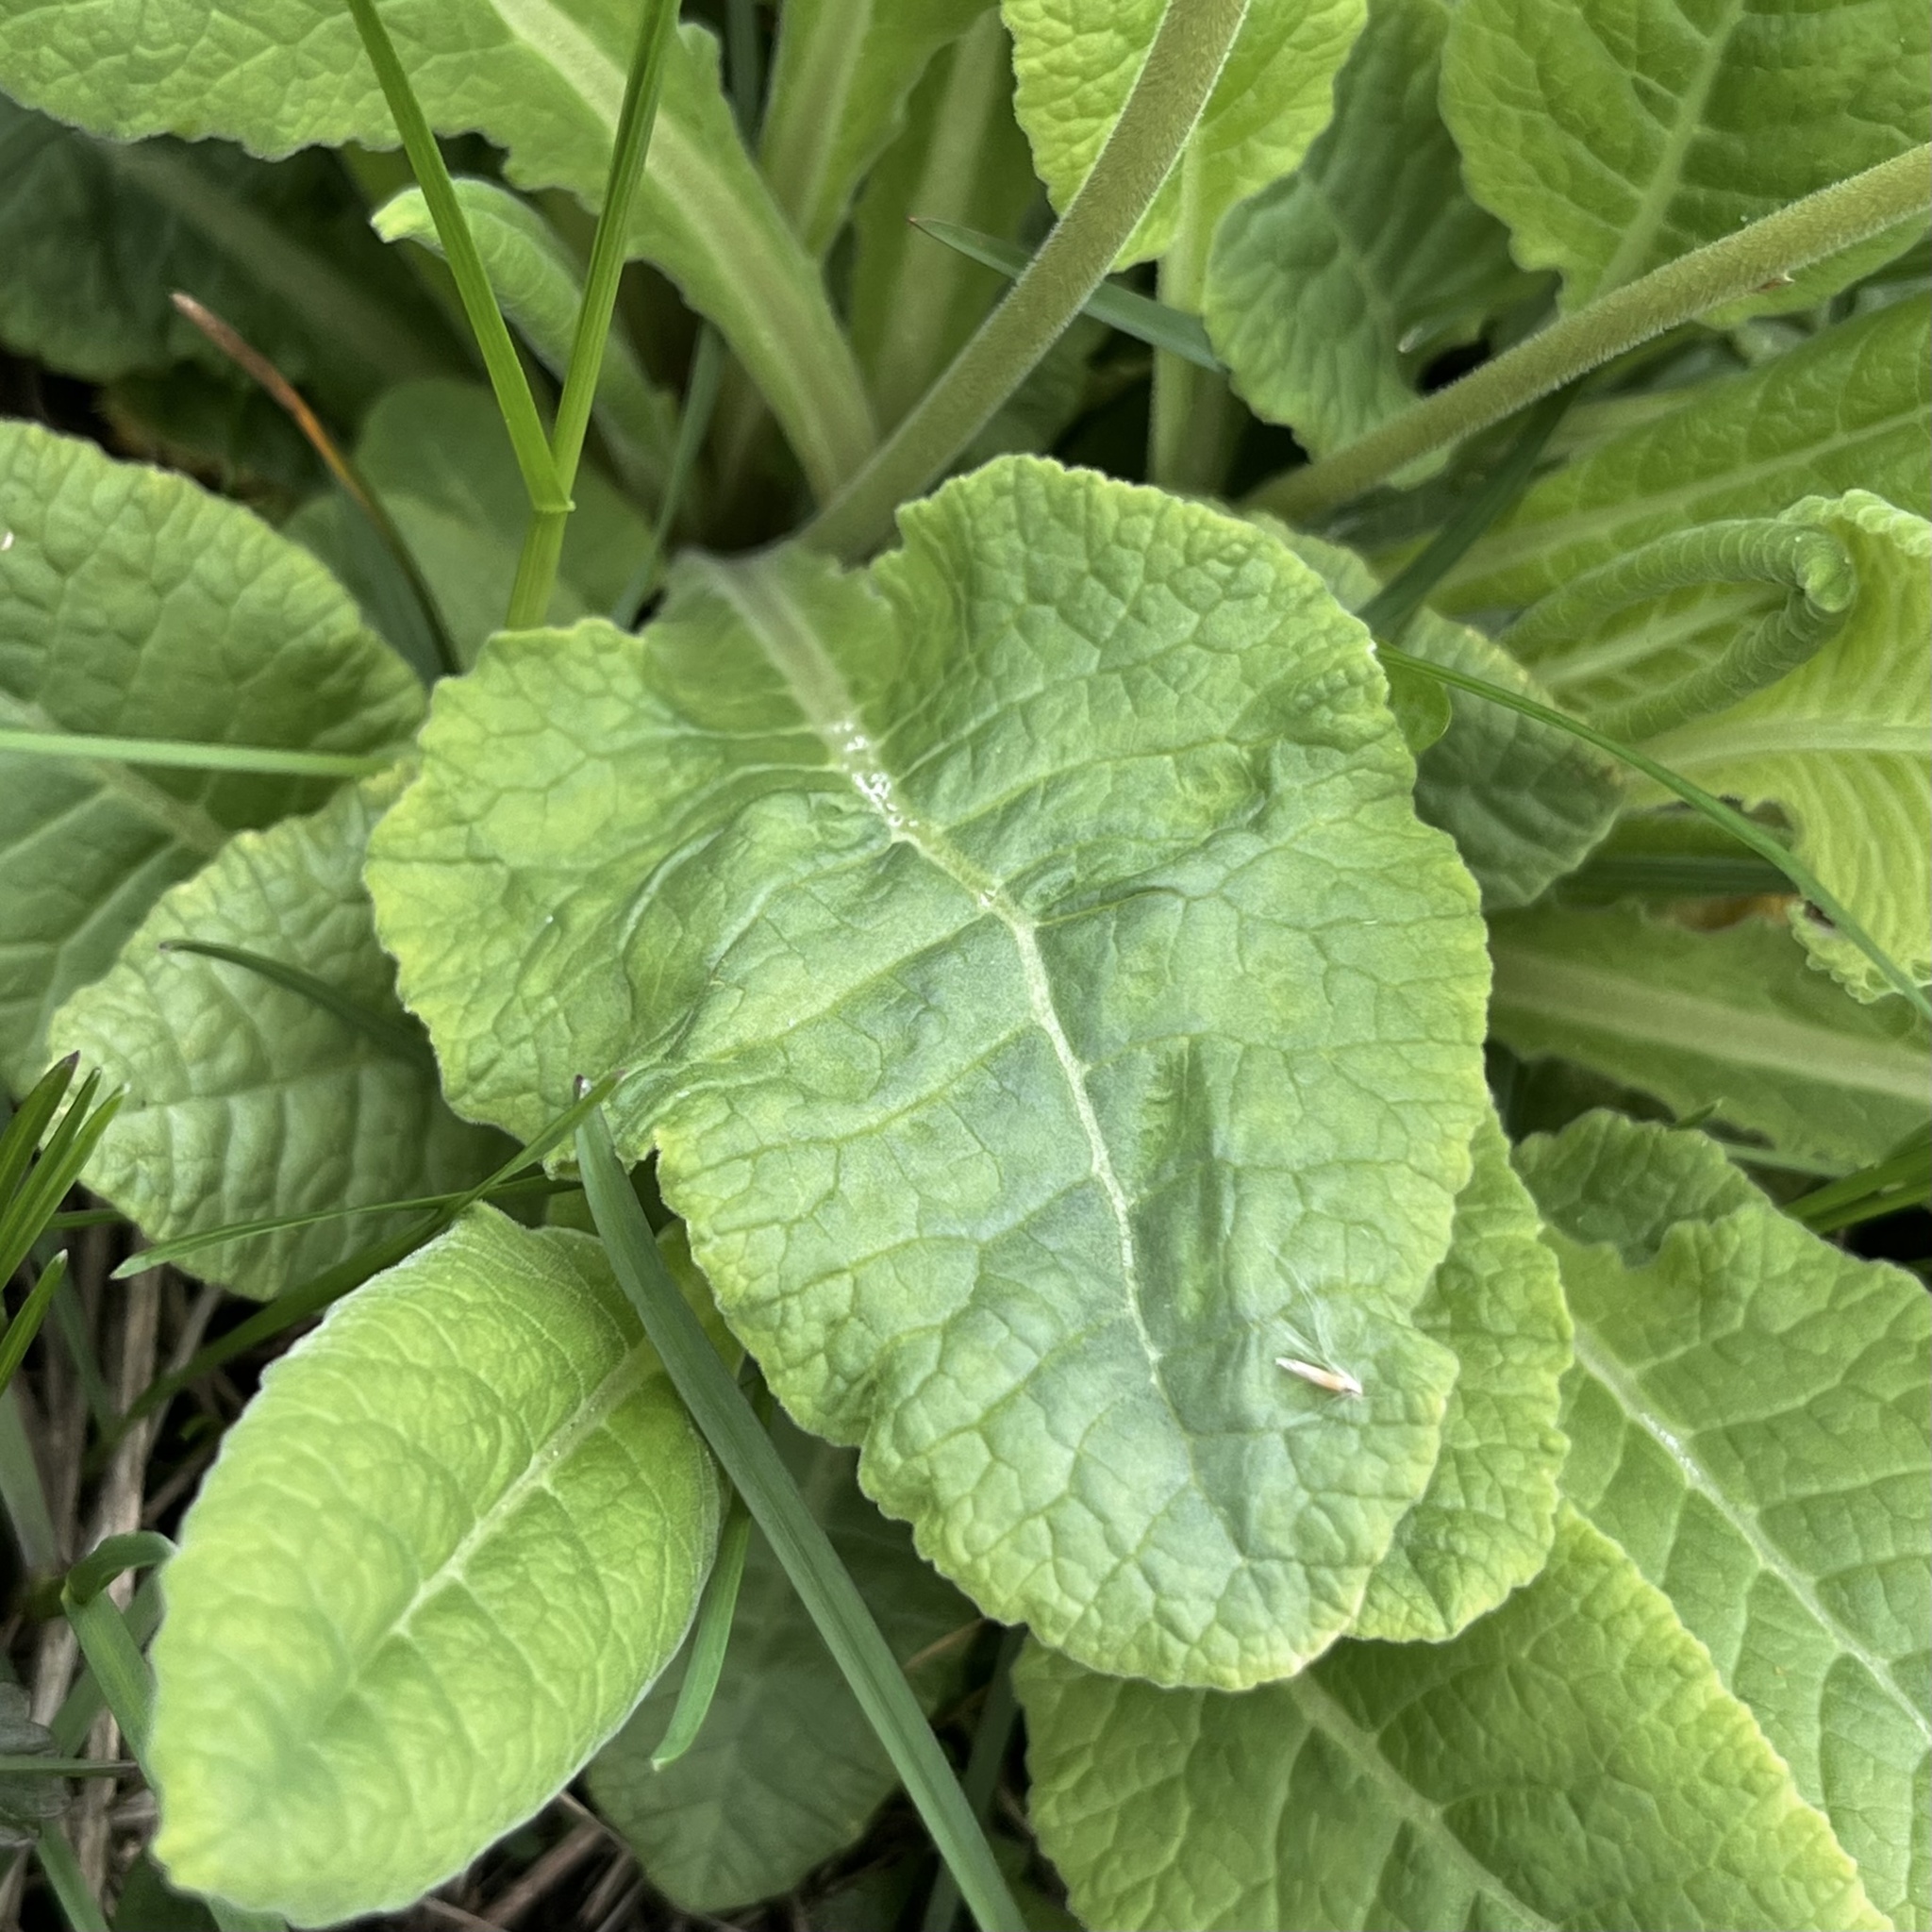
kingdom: Plantae
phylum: Tracheophyta
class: Magnoliopsida
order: Ericales
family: Primulaceae
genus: Primula
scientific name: Primula veris
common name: Cowslip
